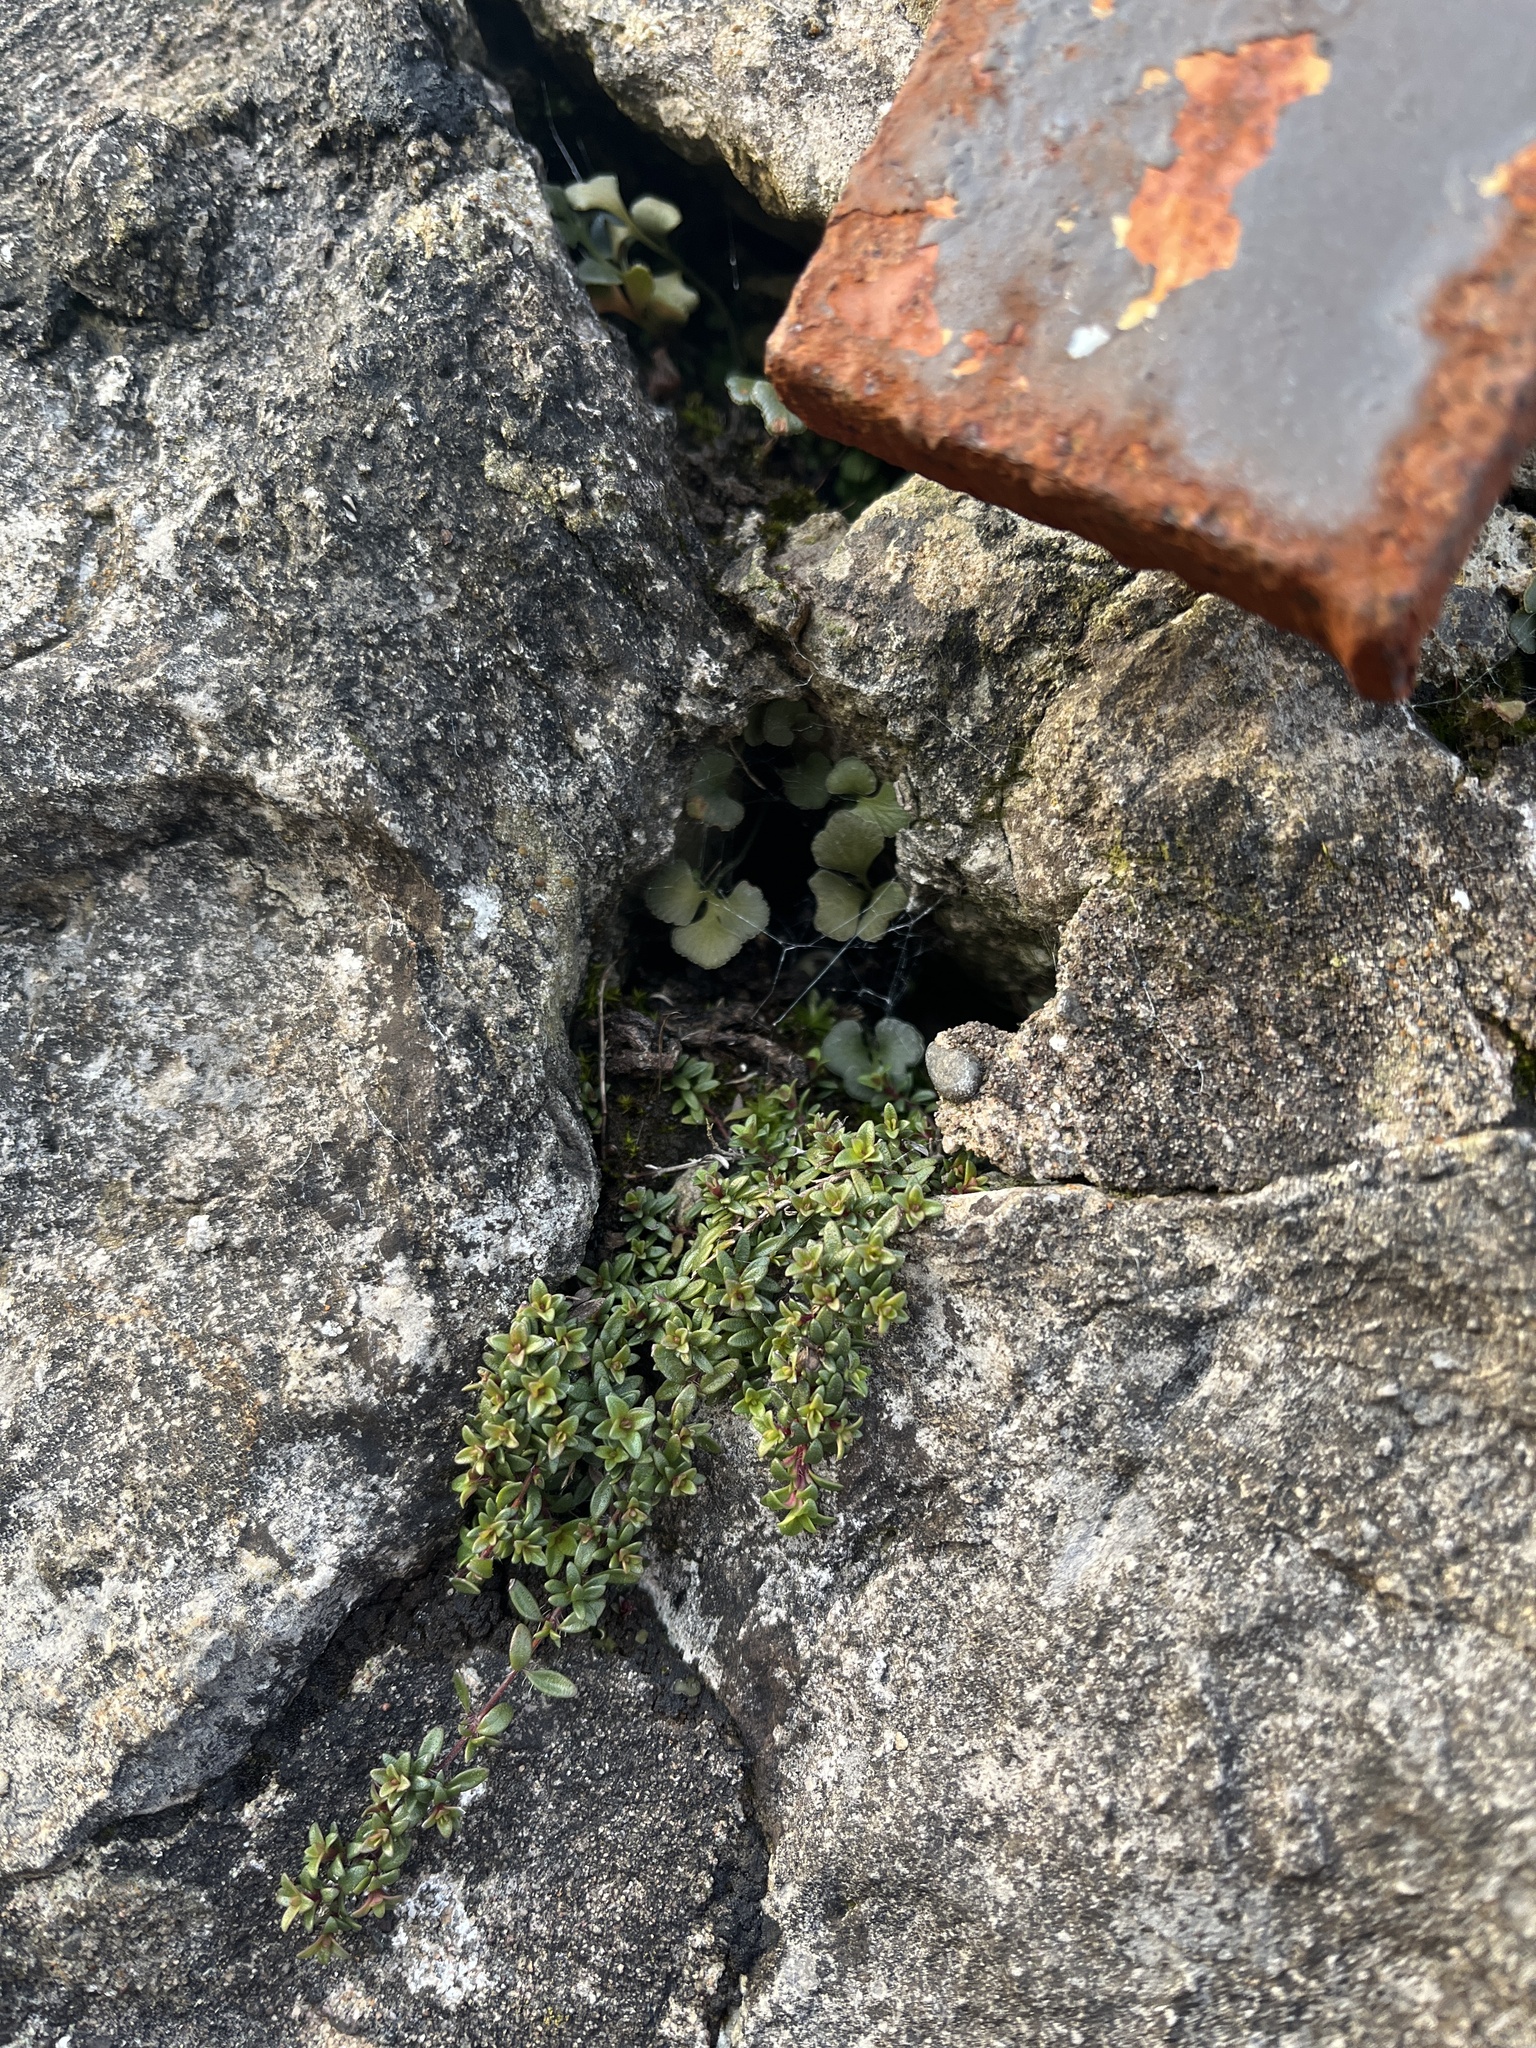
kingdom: Plantae
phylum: Tracheophyta
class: Magnoliopsida
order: Lamiales
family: Lamiaceae
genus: Thymus
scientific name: Thymus praecox
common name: Wild thyme
